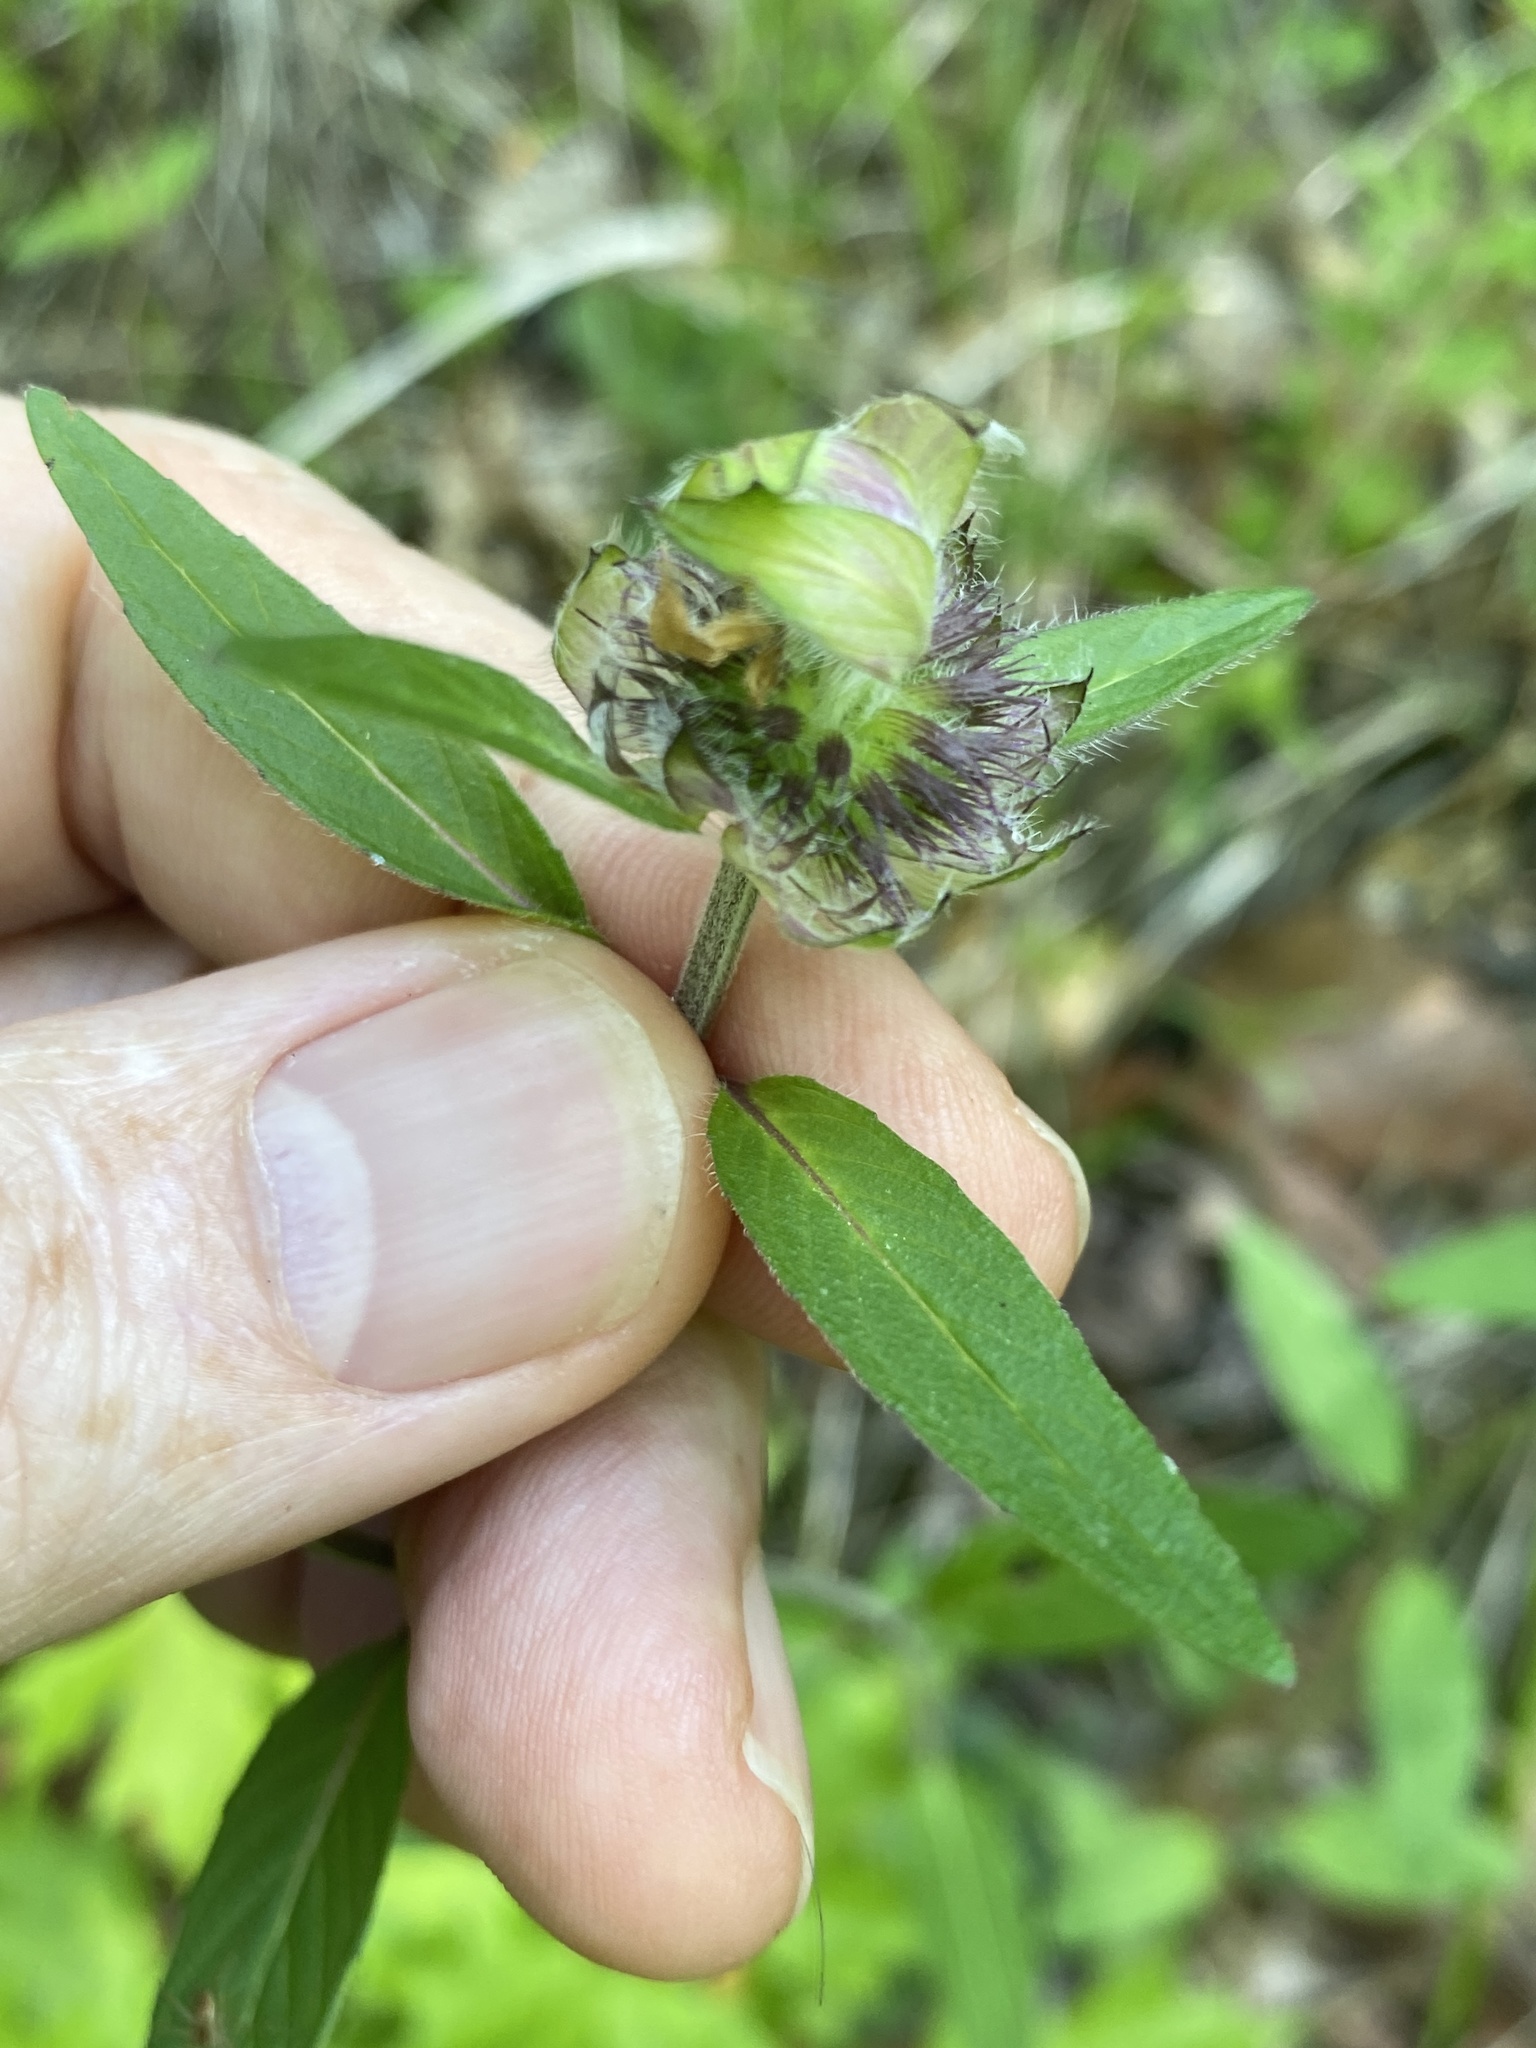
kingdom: Plantae
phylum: Tracheophyta
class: Magnoliopsida
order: Lamiales
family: Lamiaceae
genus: Blephilia
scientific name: Blephilia ciliata
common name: Downy blephilia
